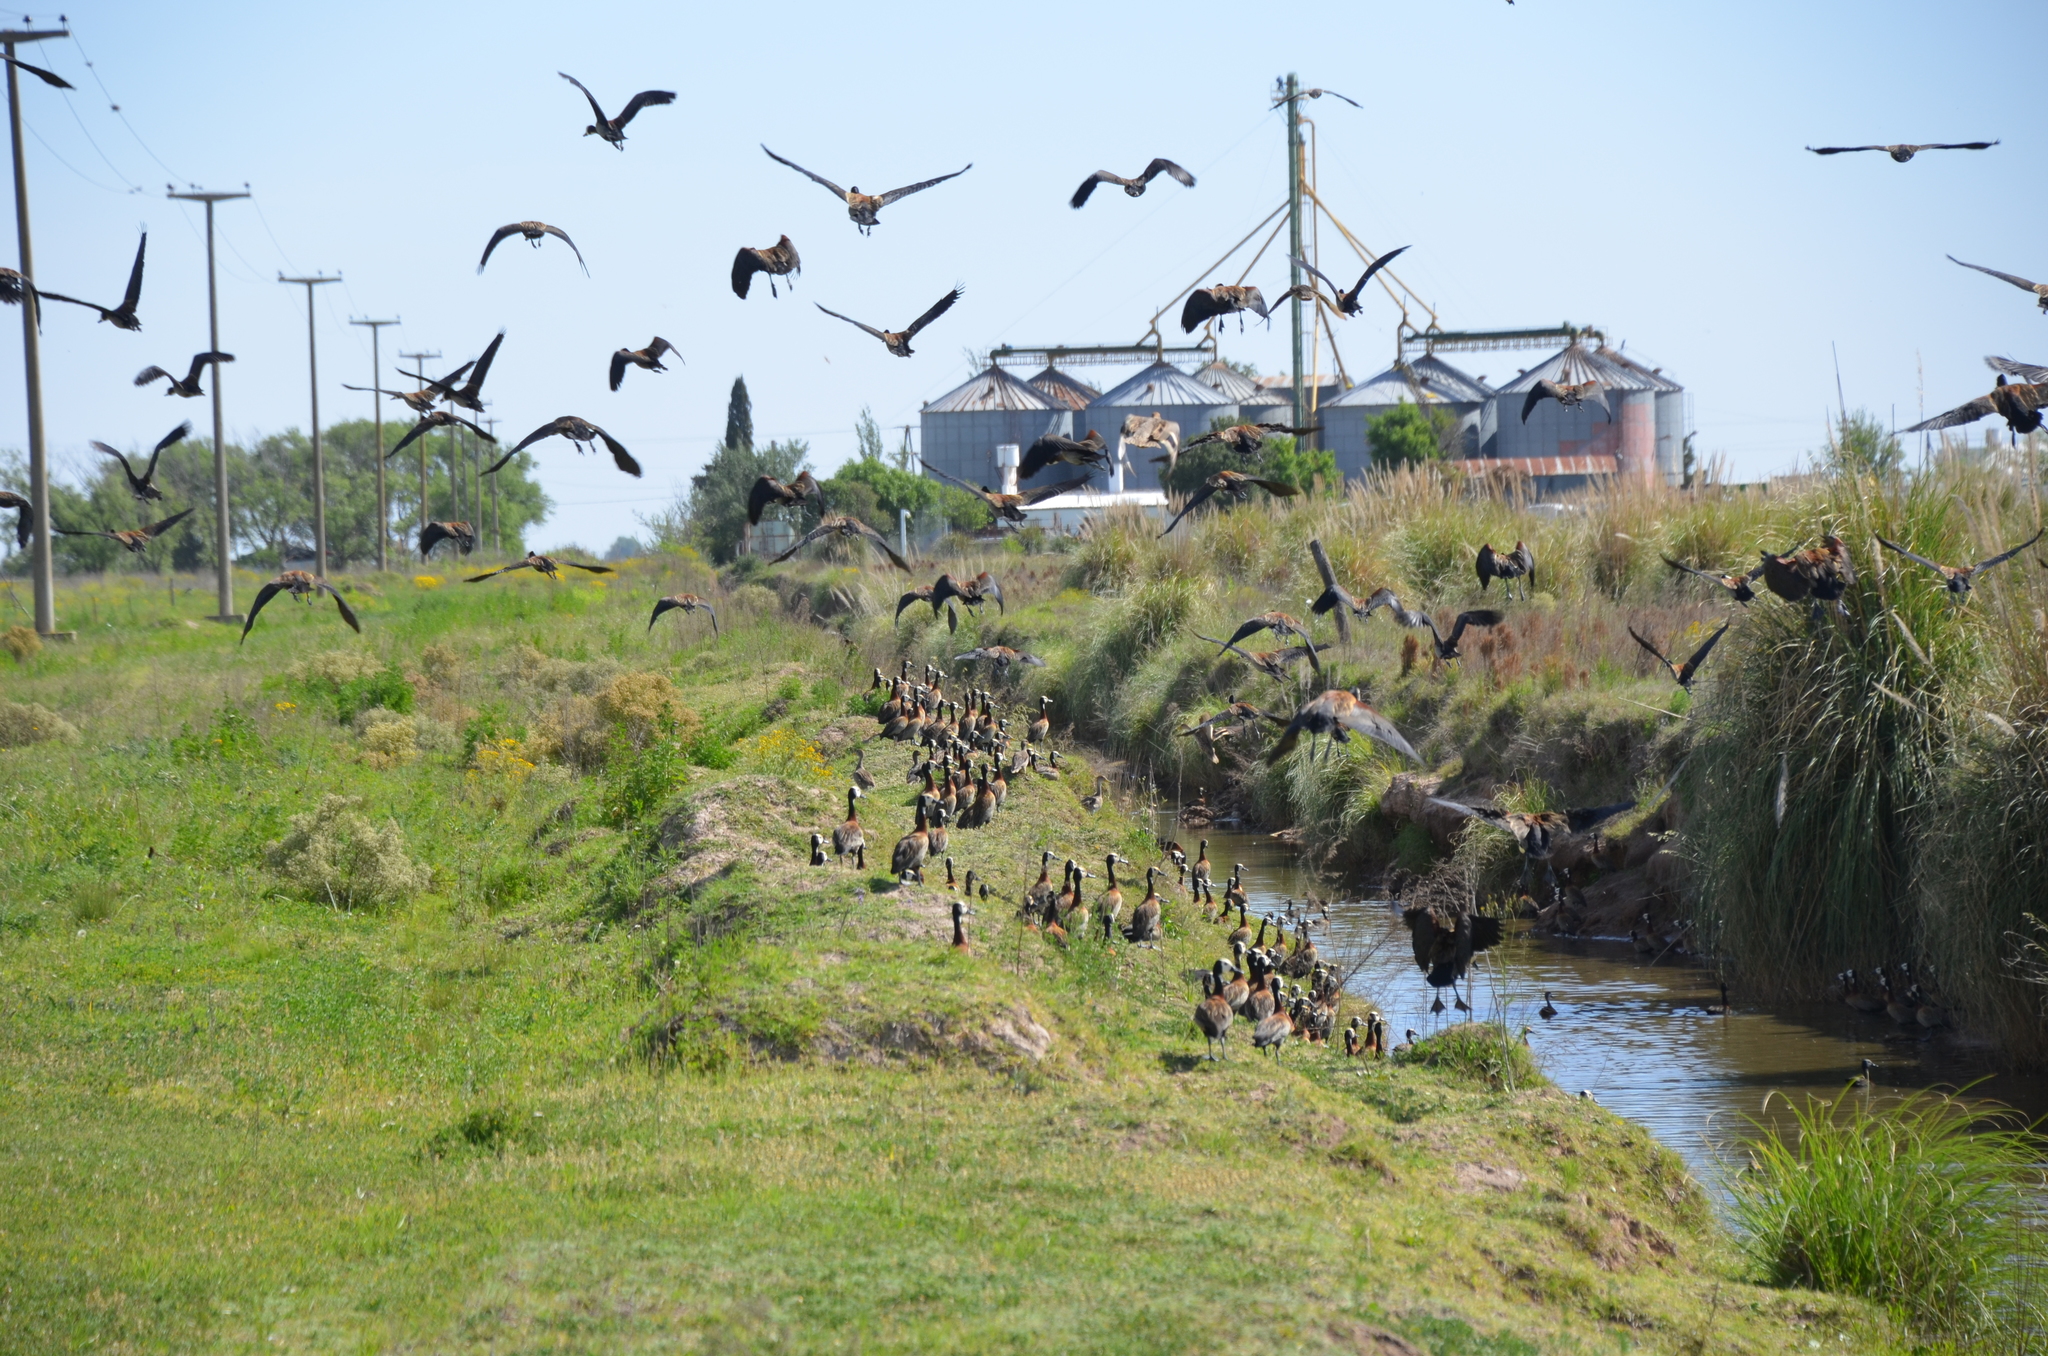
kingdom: Animalia
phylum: Chordata
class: Aves
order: Anseriformes
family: Anatidae
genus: Dendrocygna
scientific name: Dendrocygna viduata
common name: White-faced whistling duck
